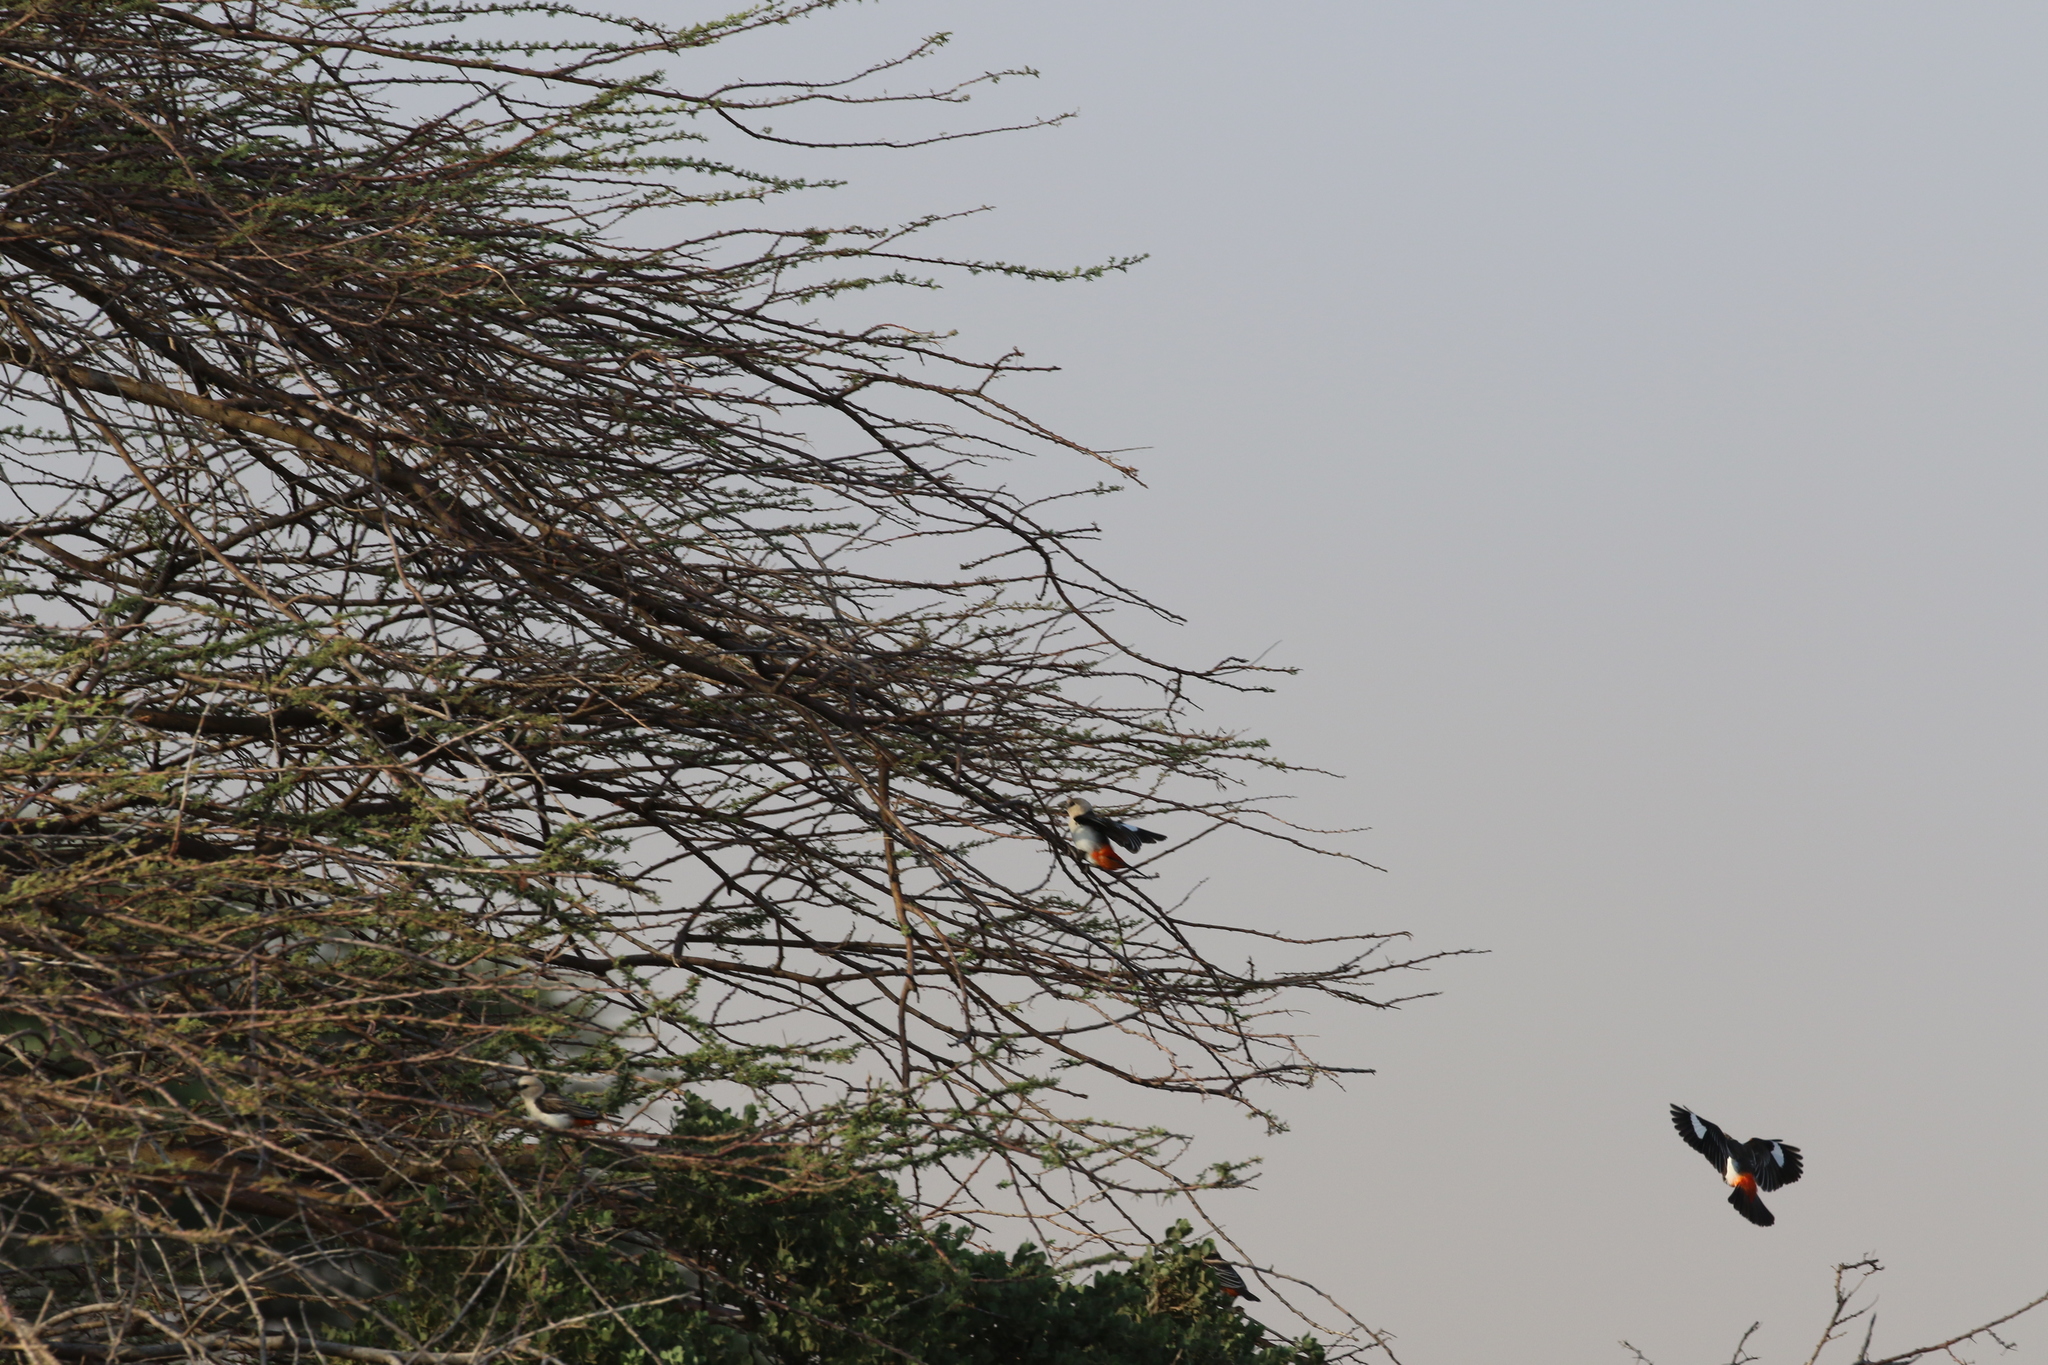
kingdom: Animalia
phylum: Chordata
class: Aves
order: Passeriformes
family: Ploceidae
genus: Dinemellia
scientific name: Dinemellia dinemelli
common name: White-headed buffalo weaver
